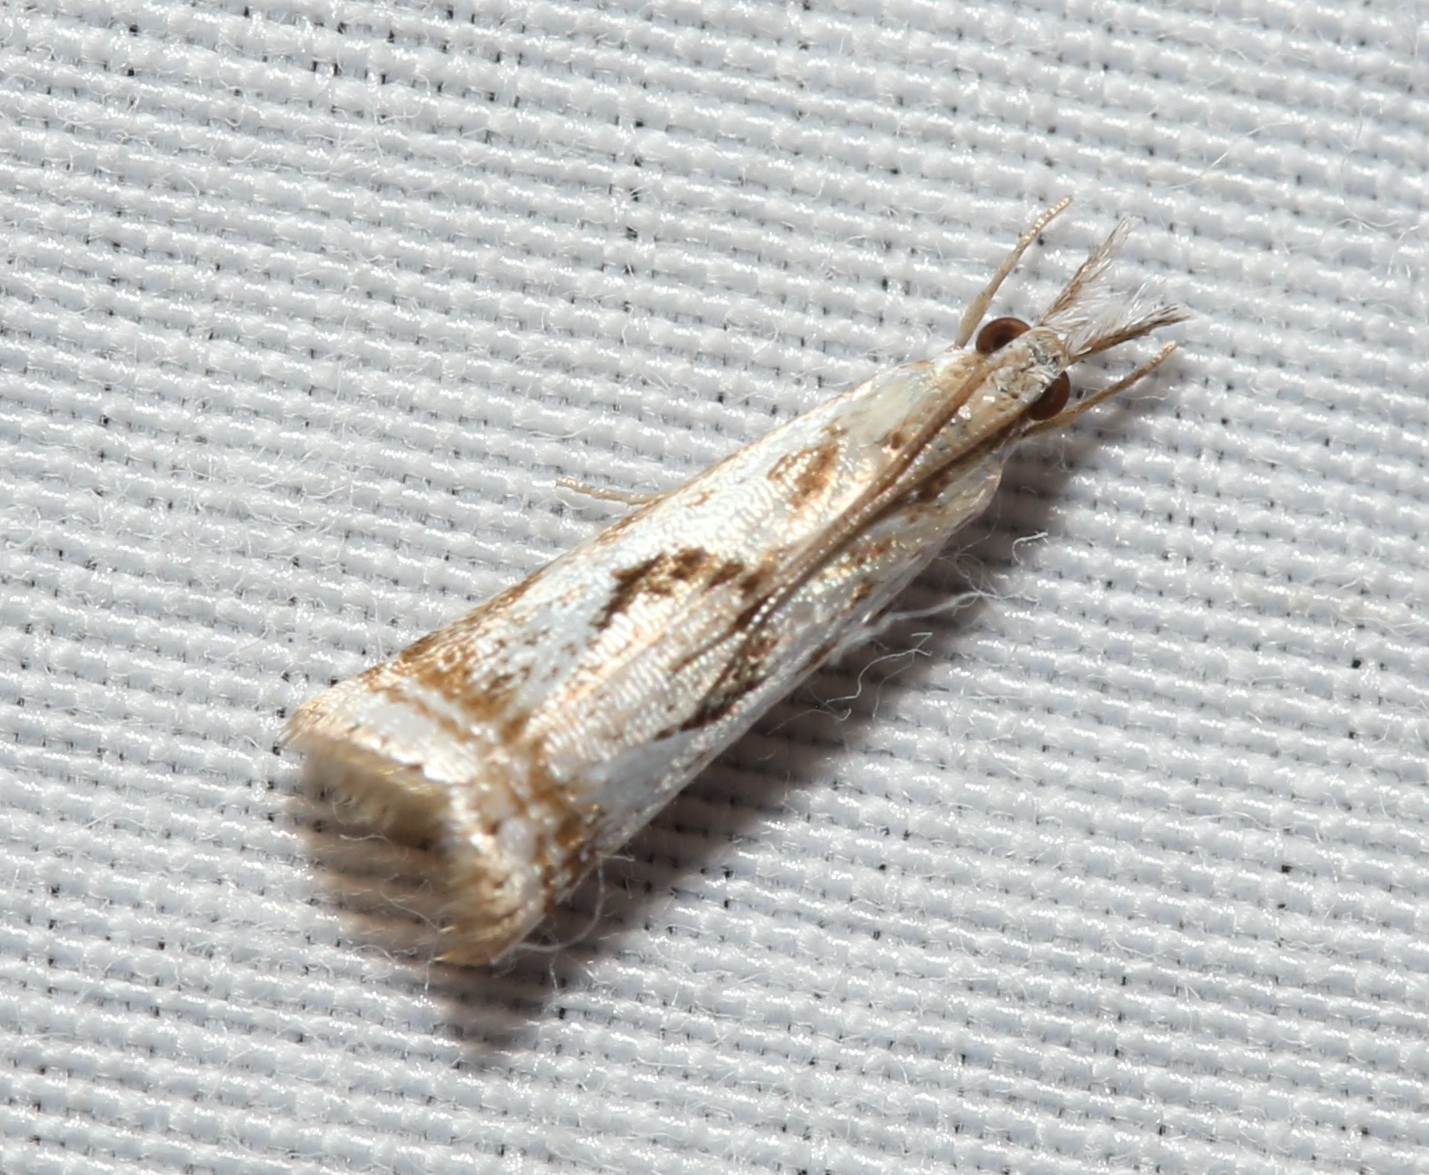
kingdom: Animalia
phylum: Arthropoda
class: Insecta
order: Lepidoptera
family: Crambidae
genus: Microcrambus
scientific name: Microcrambus elegans
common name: Elegant grass-veneer
